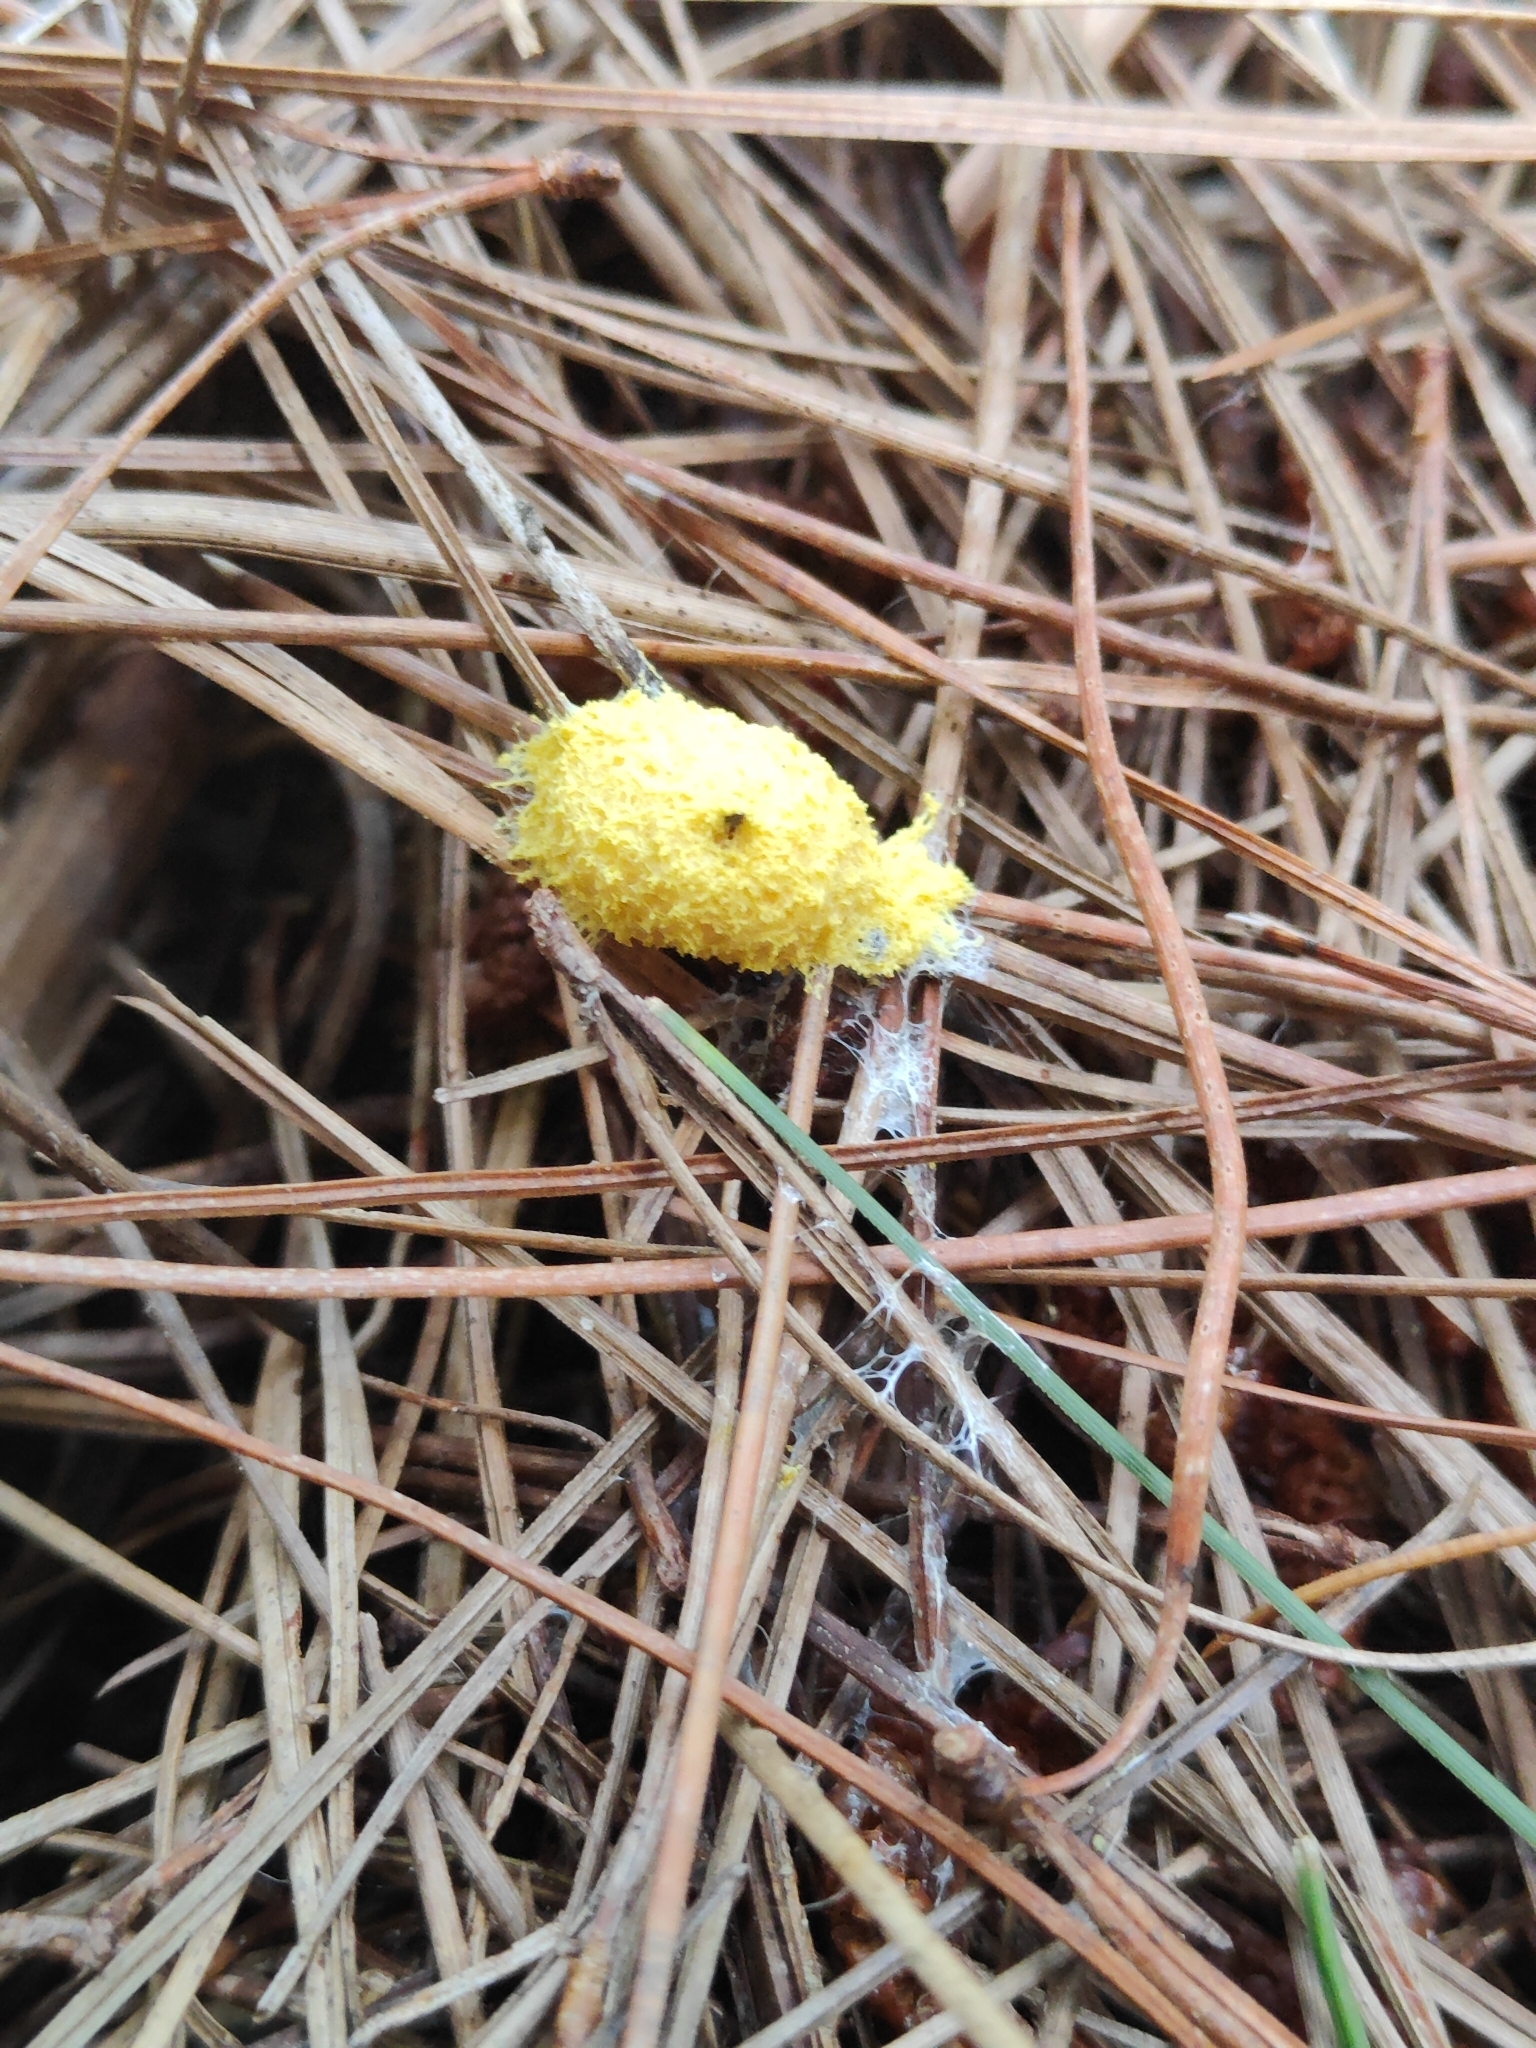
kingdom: Protozoa
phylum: Mycetozoa
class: Myxomycetes
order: Physarales
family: Physaraceae
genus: Fuligo
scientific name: Fuligo septica
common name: Dog vomit slime mold
